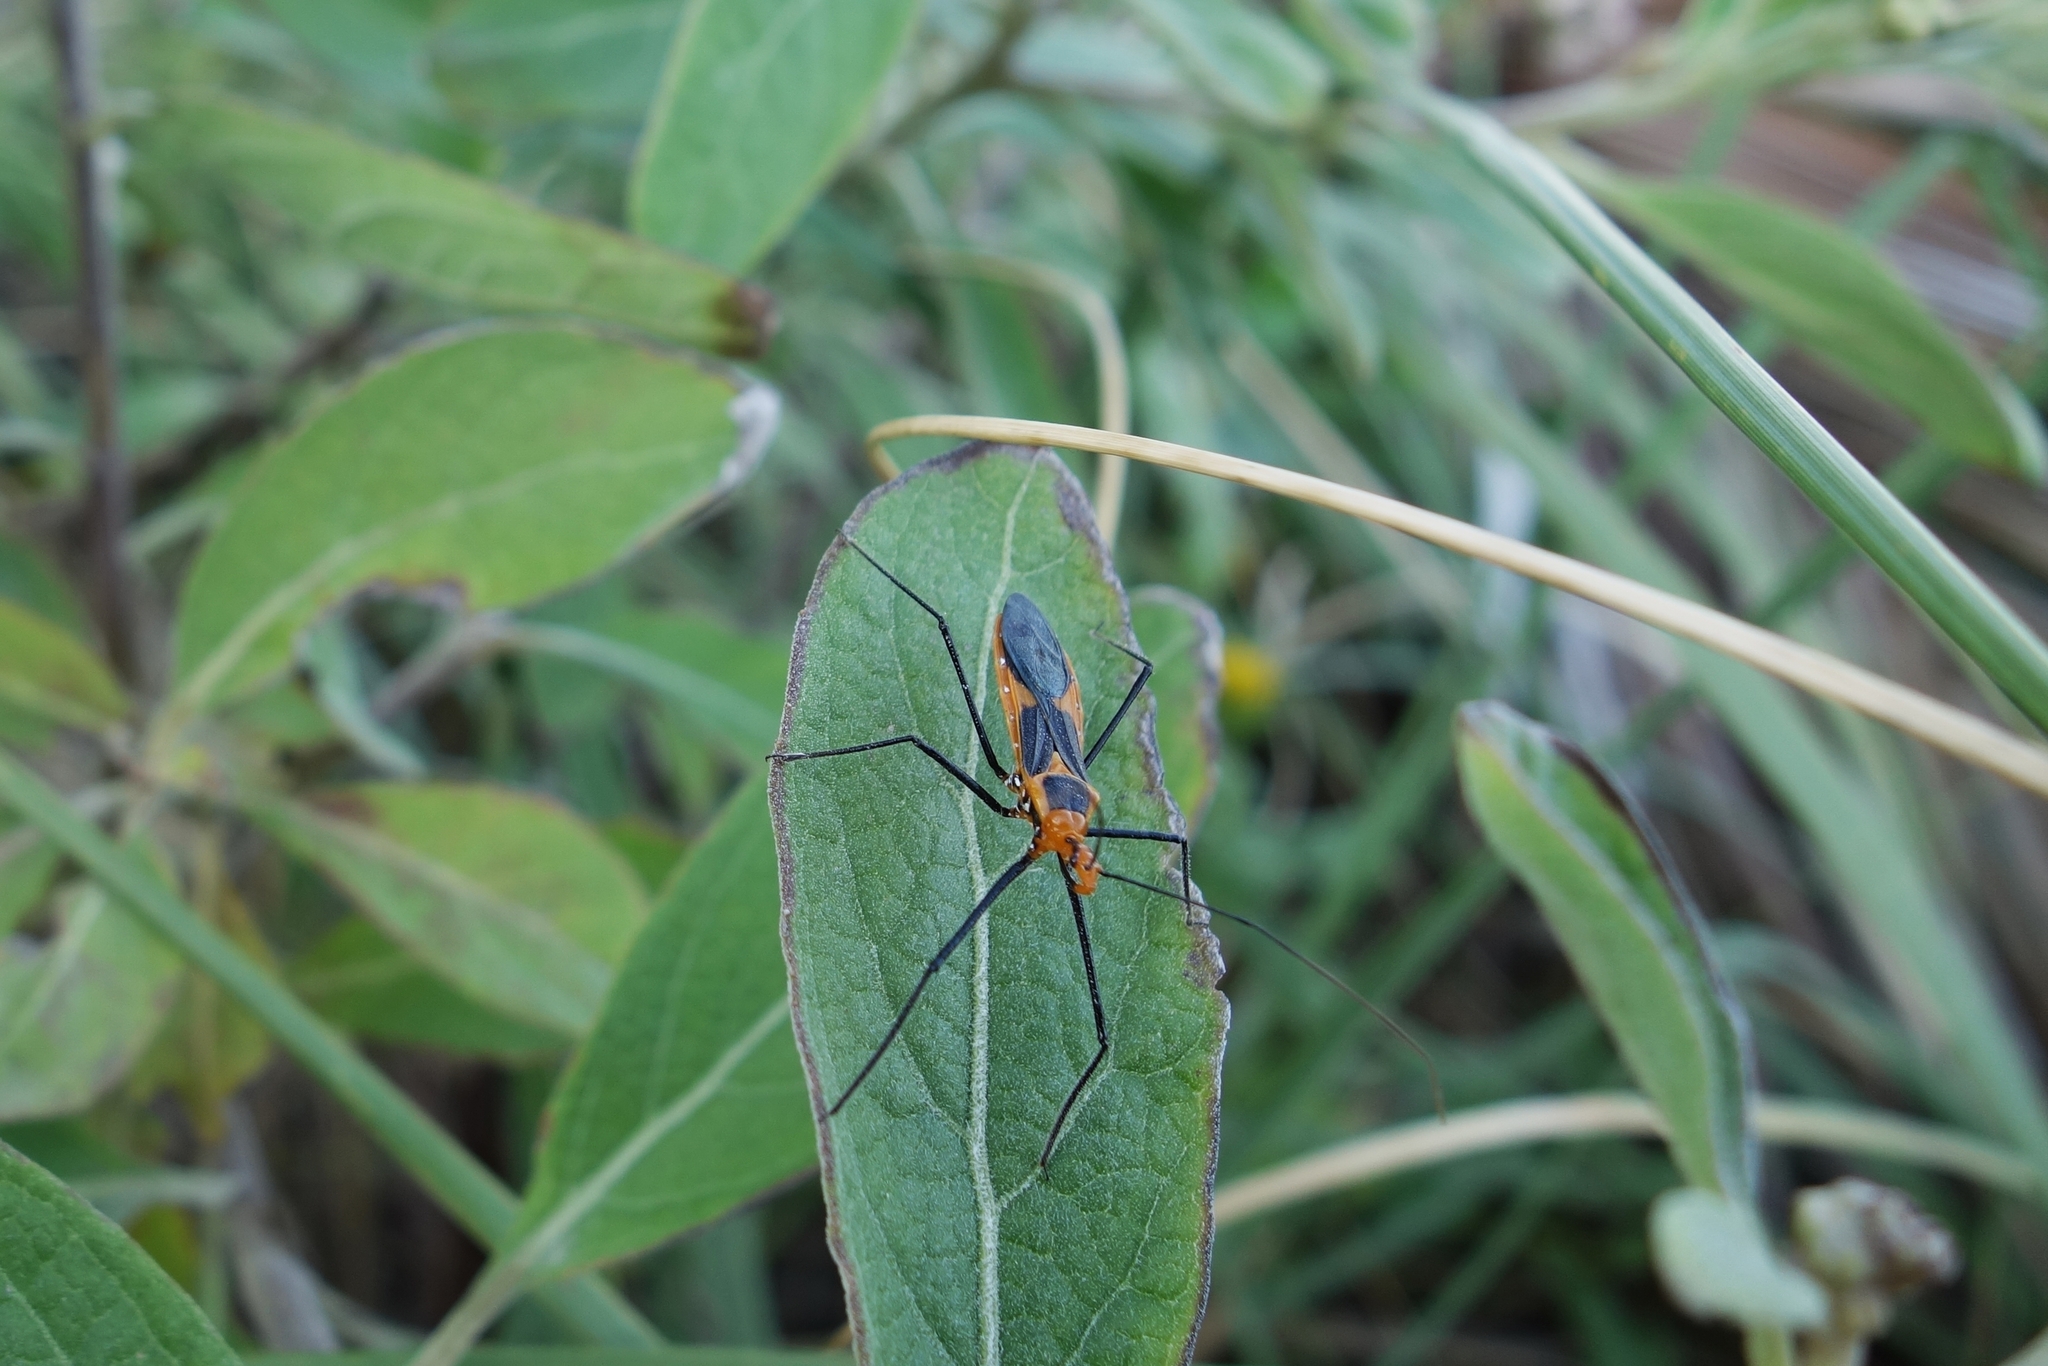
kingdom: Animalia
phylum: Arthropoda
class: Insecta
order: Hemiptera
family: Reduviidae
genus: Zelus
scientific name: Zelus longipes
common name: Milkweed assassin bug
